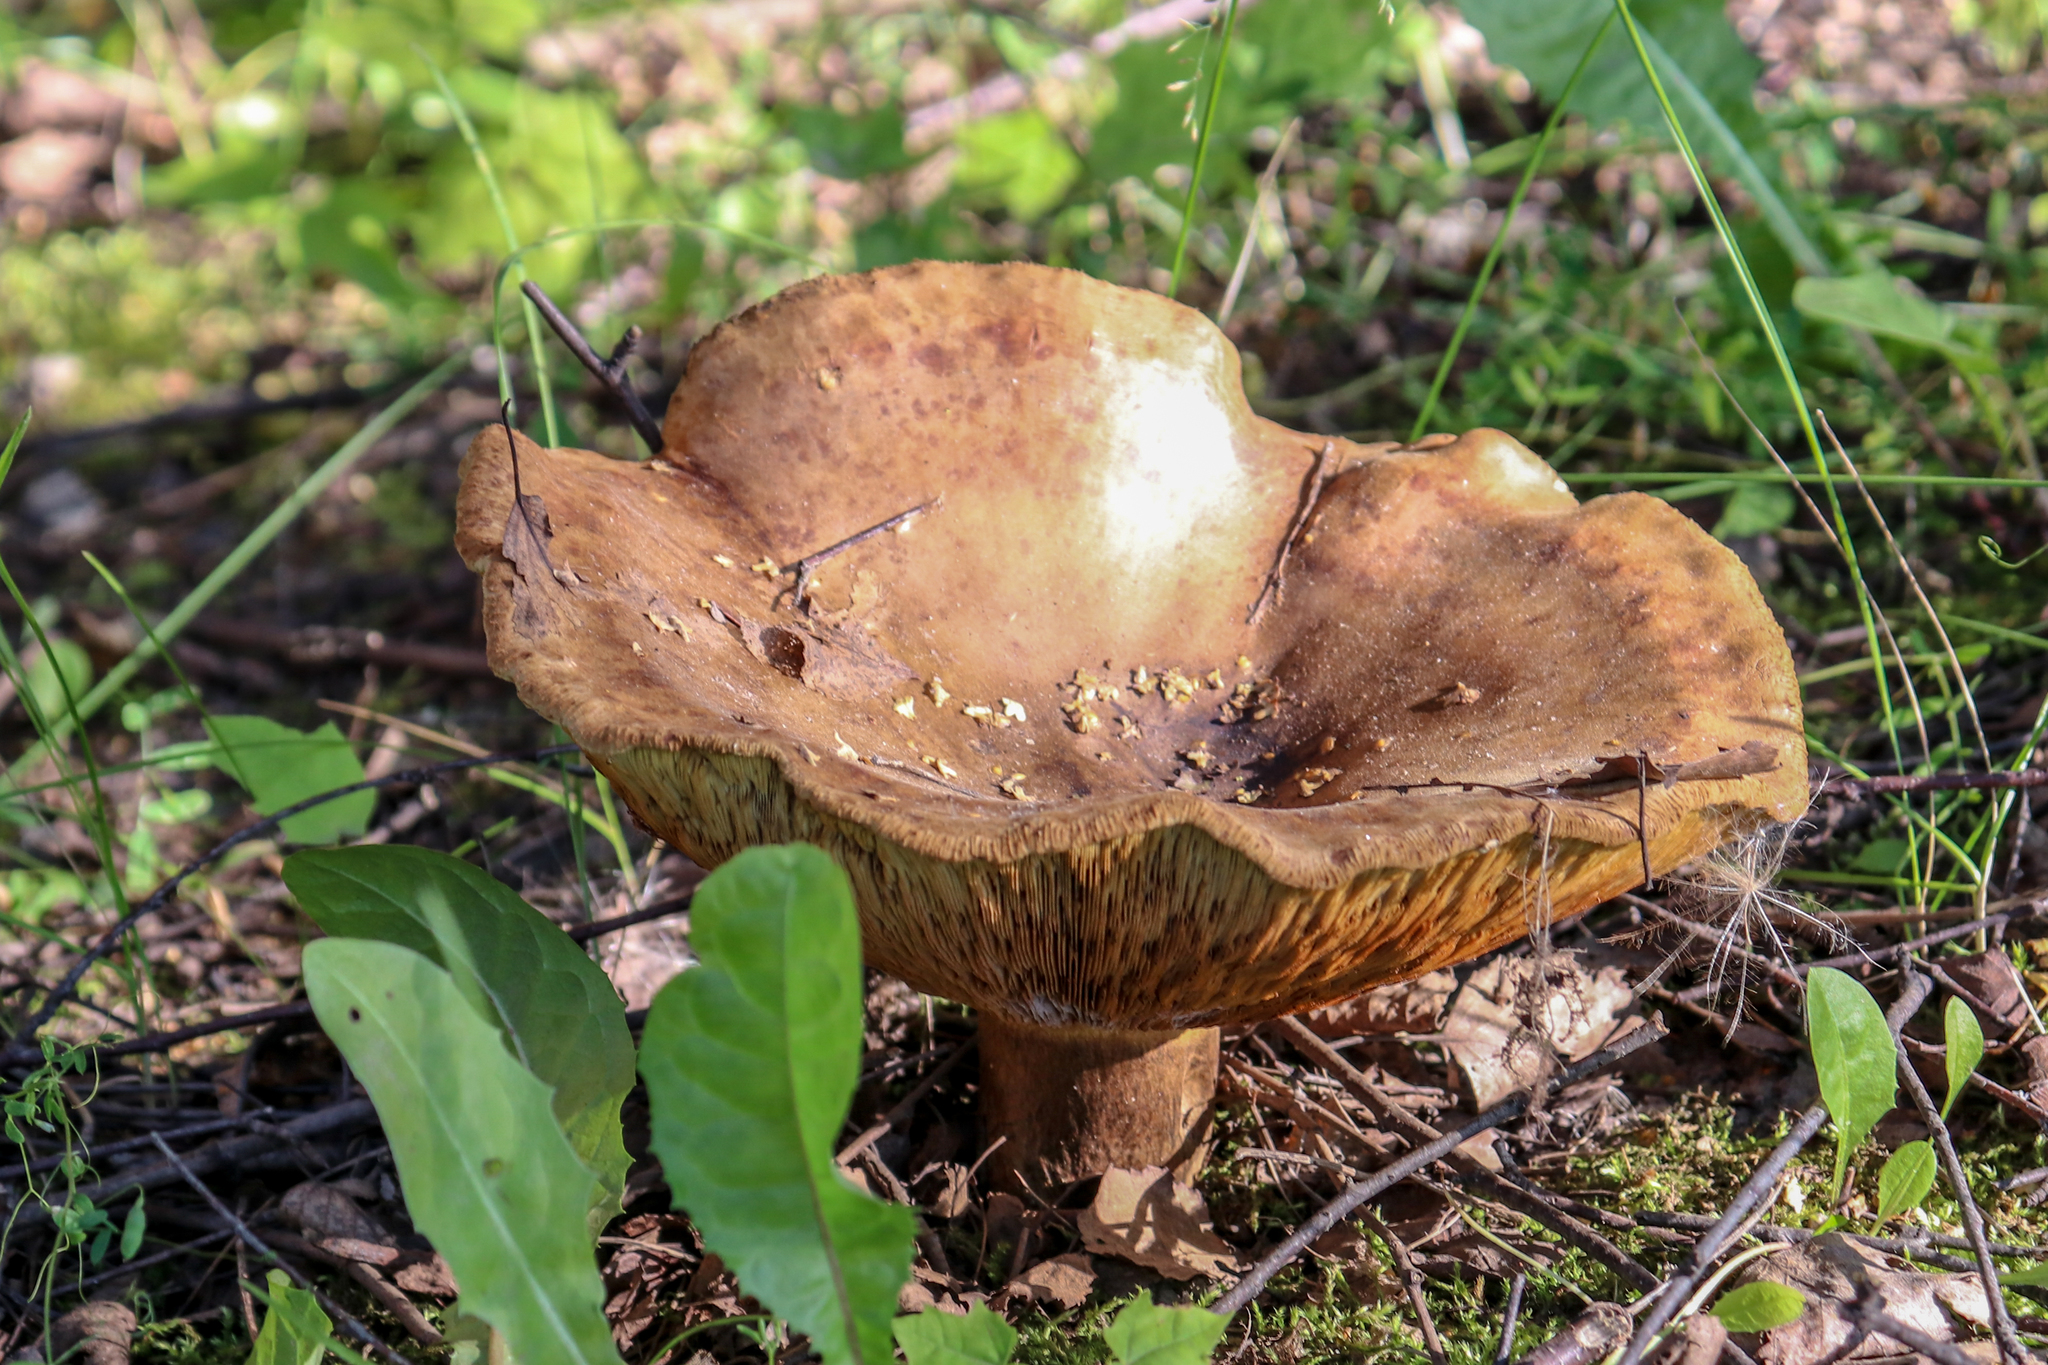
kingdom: Fungi
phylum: Basidiomycota
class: Agaricomycetes
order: Boletales
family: Paxillaceae
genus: Paxillus
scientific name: Paxillus involutus
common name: Brown roll rim
